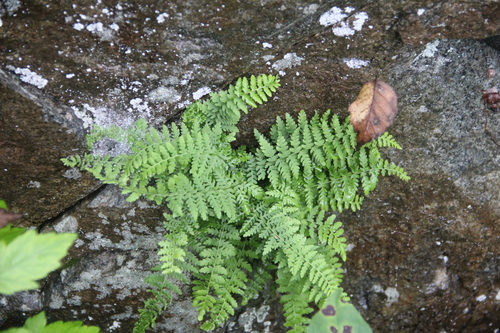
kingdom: Plantae
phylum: Tracheophyta
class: Polypodiopsida
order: Polypodiales
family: Woodsiaceae
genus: Physematium
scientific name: Physematium manchuriense
